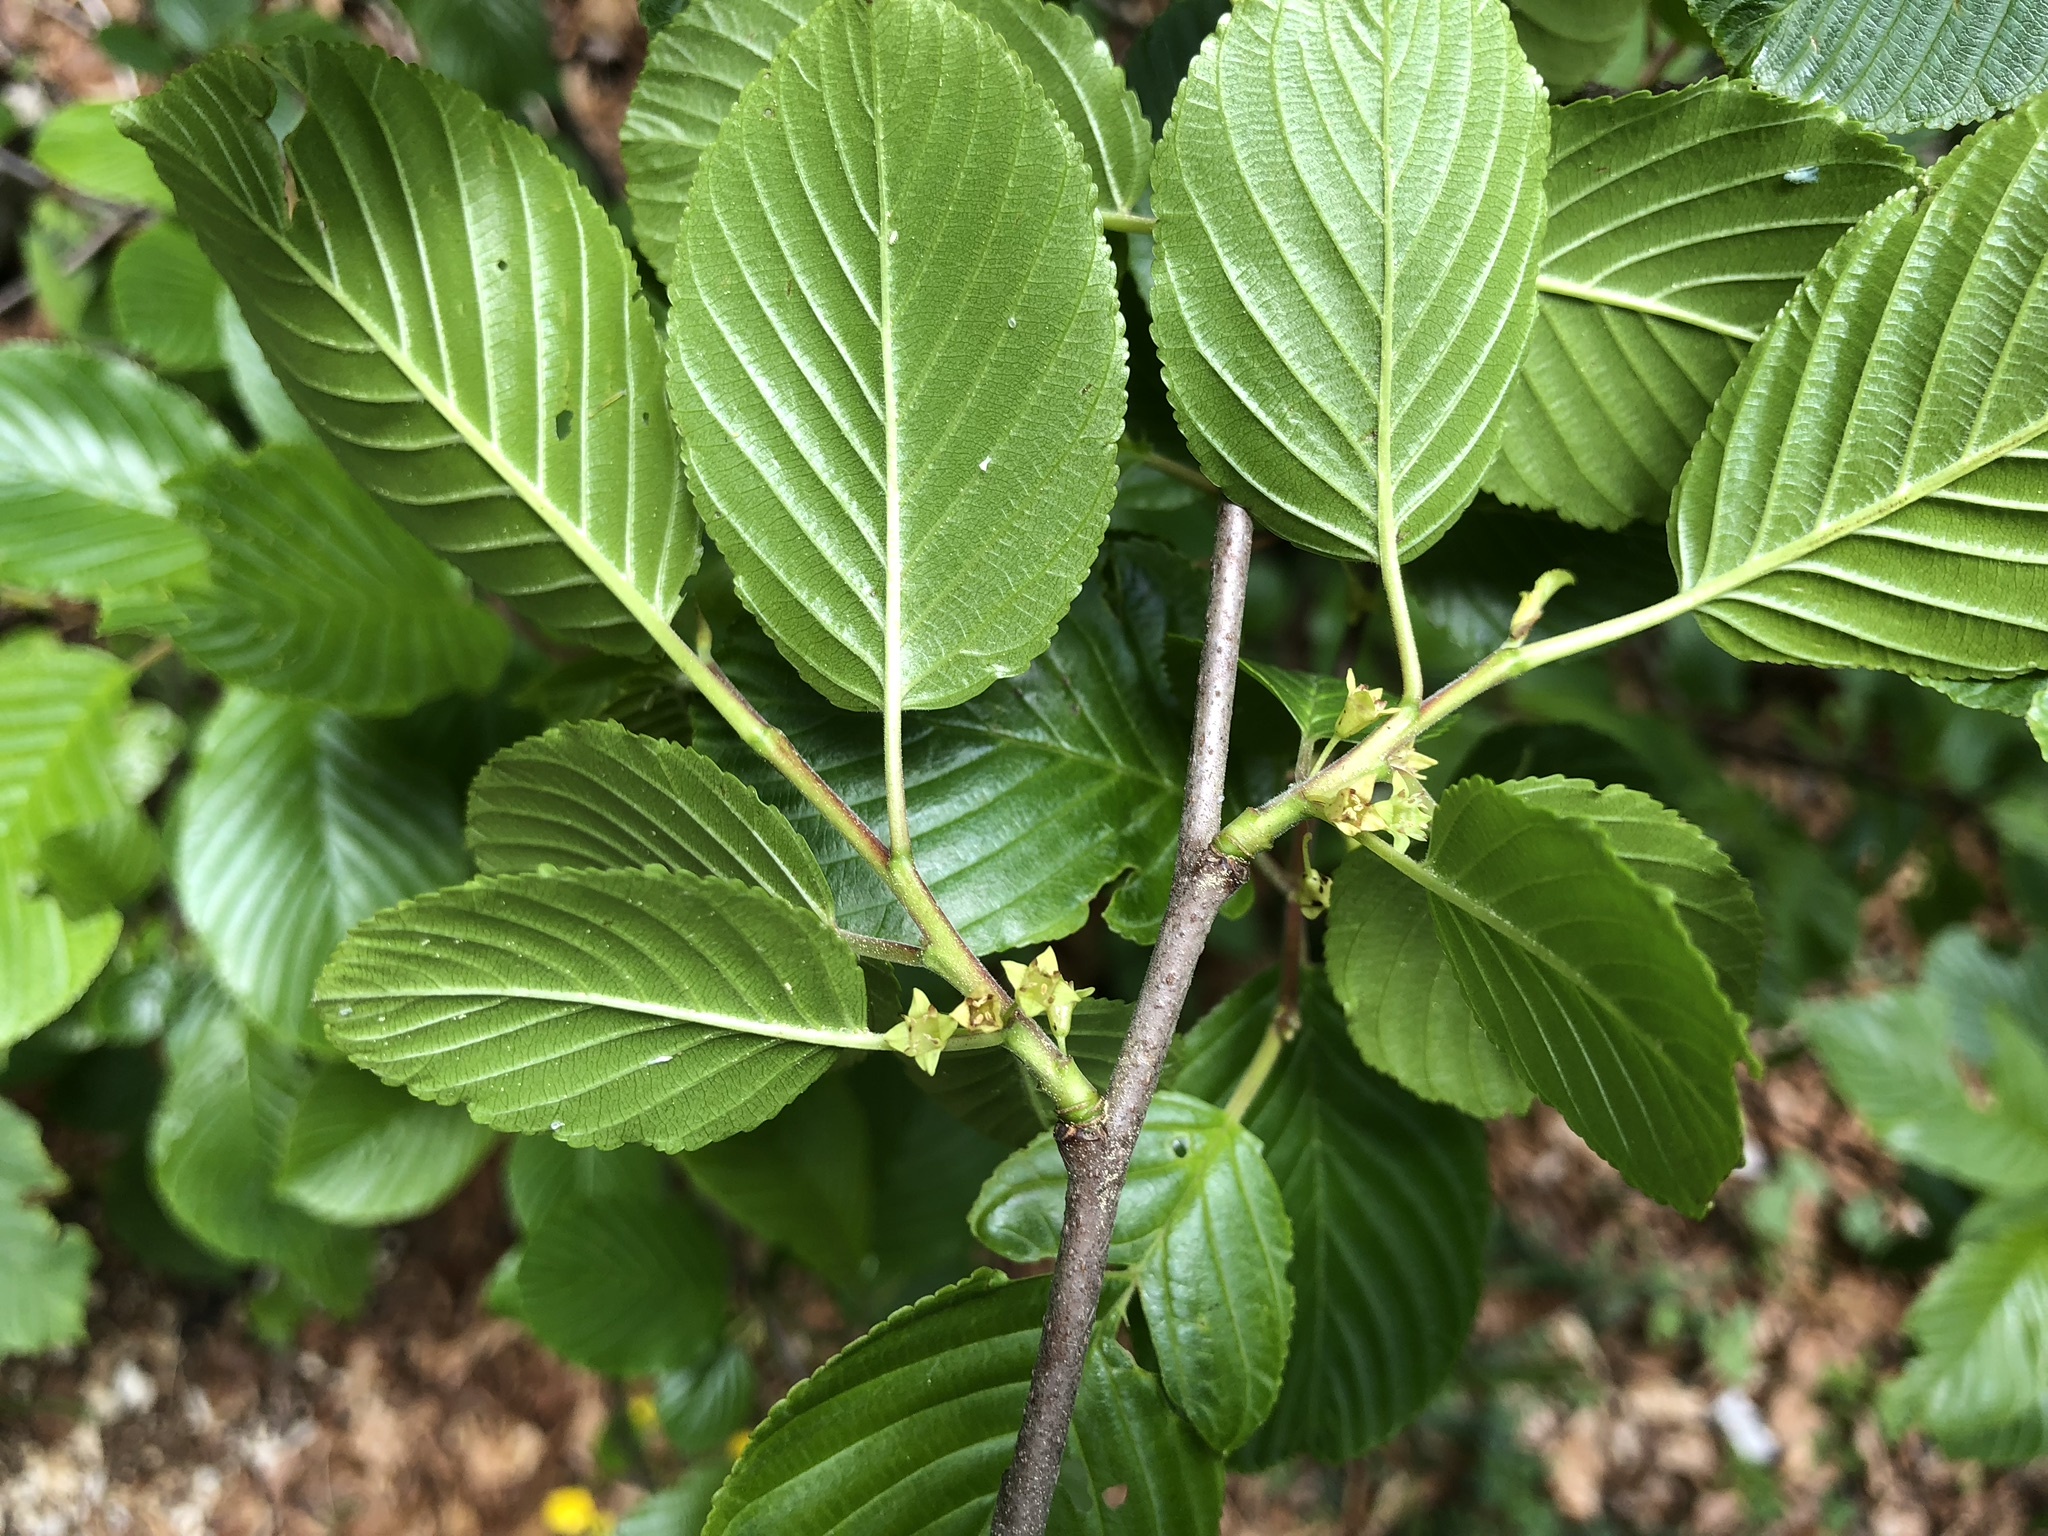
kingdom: Plantae
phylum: Tracheophyta
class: Magnoliopsida
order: Rosales
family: Rhamnaceae
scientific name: Rhamnaceae
